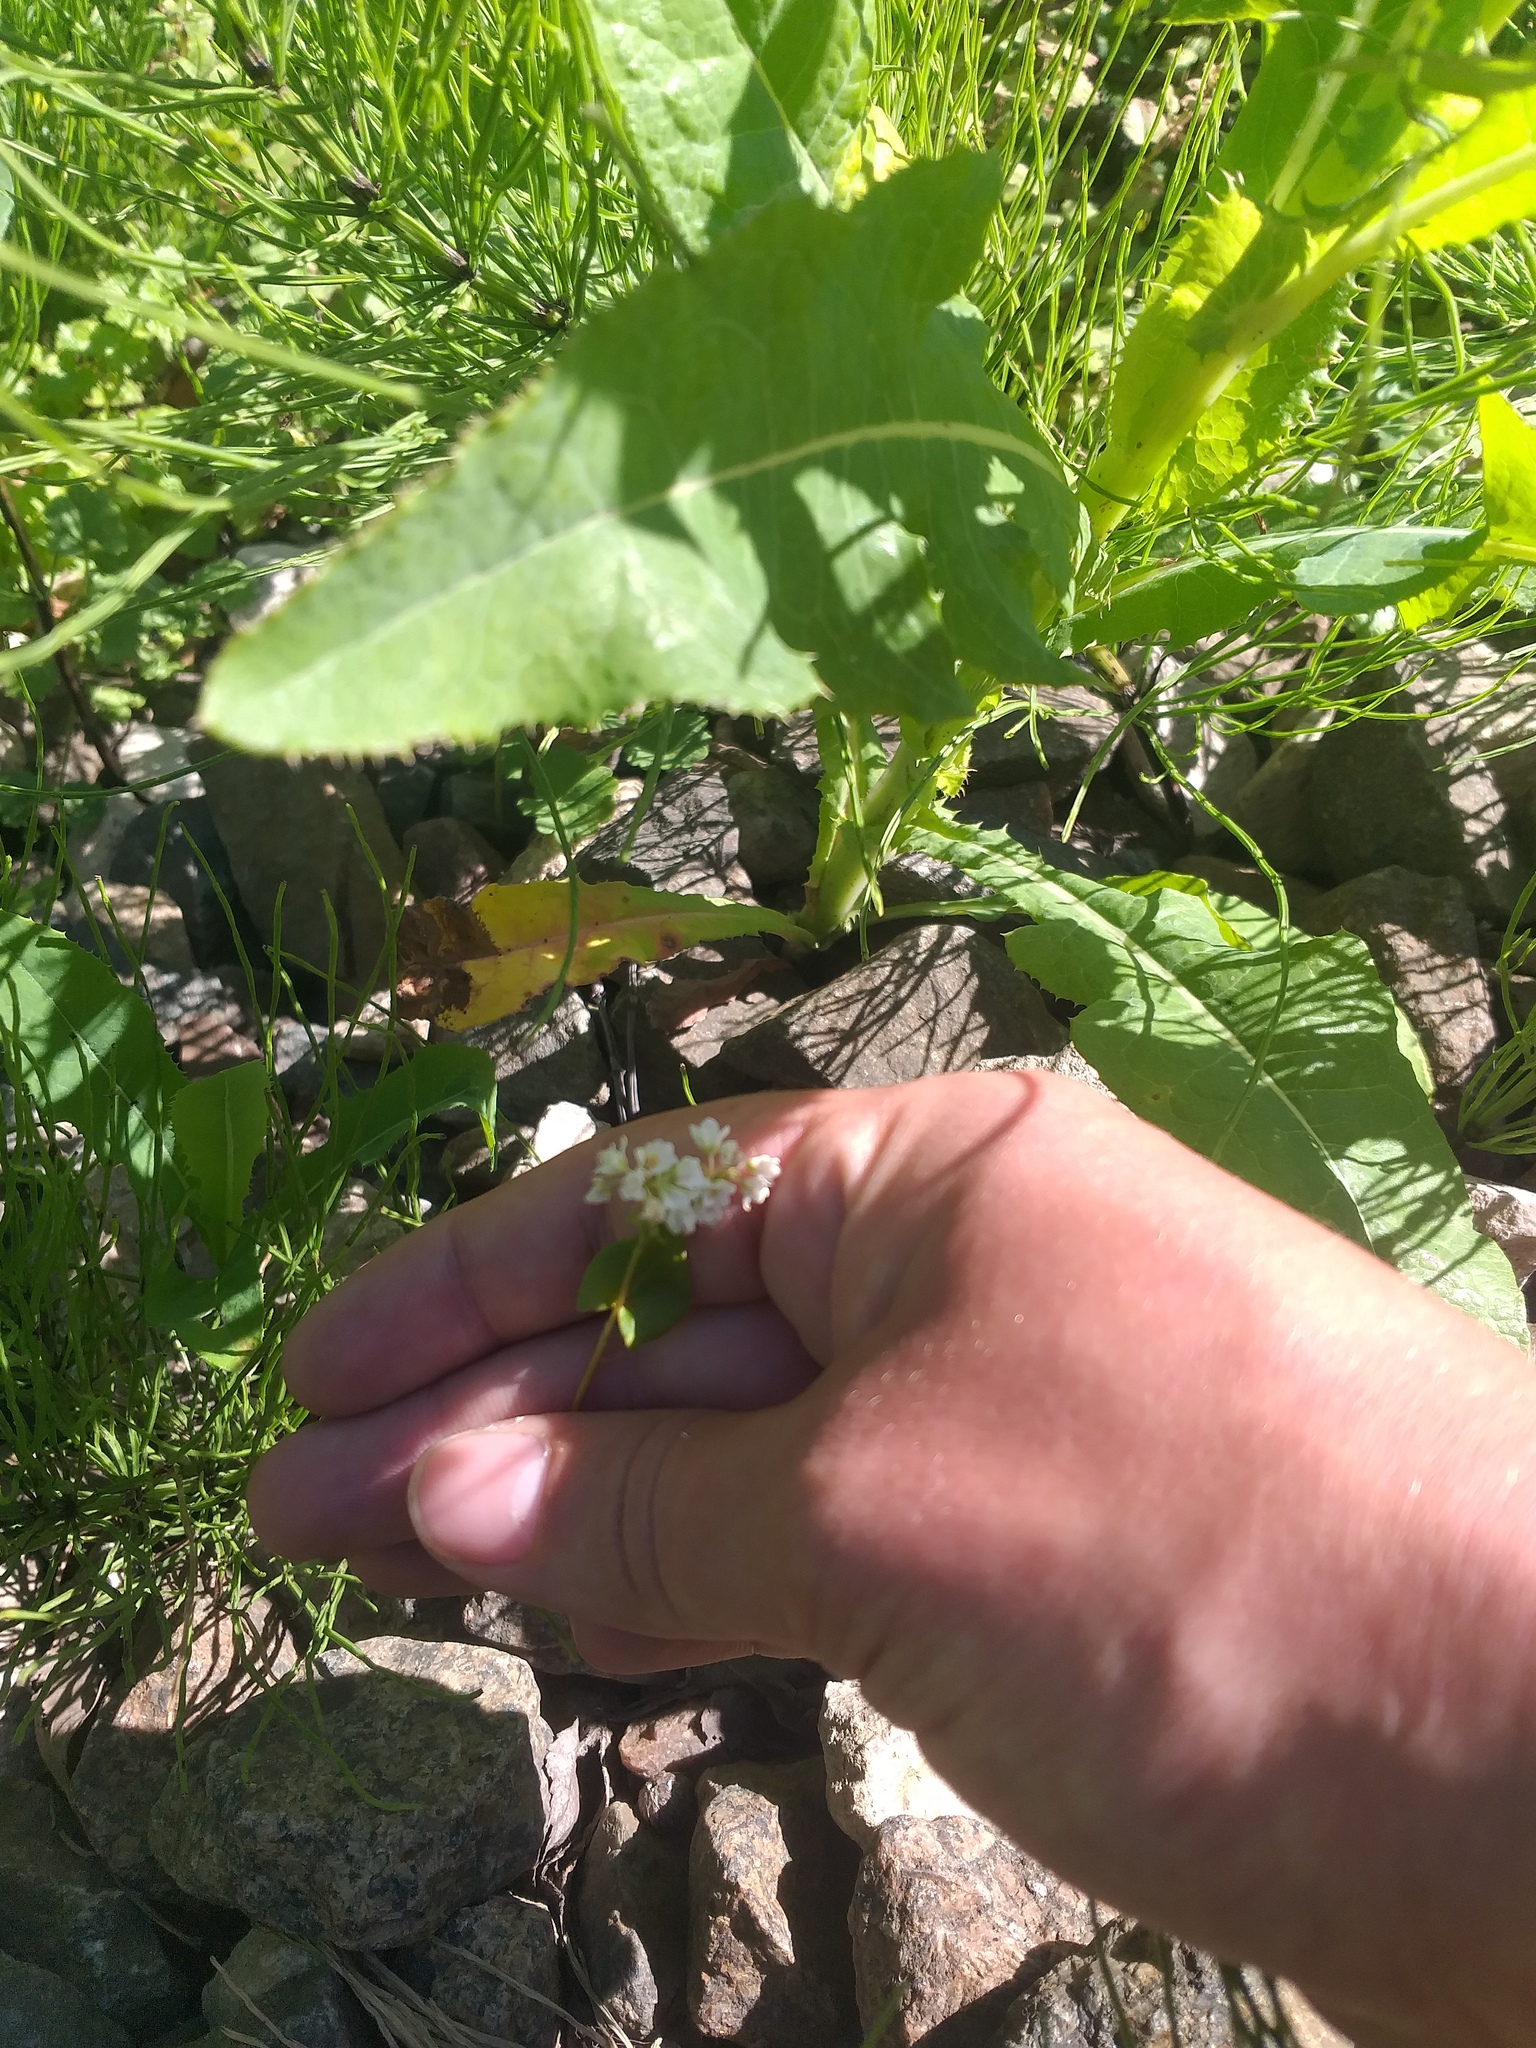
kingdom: Plantae
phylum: Tracheophyta
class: Magnoliopsida
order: Caryophyllales
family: Polygonaceae
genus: Fagopyrum
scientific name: Fagopyrum esculentum
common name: Buckwheat
